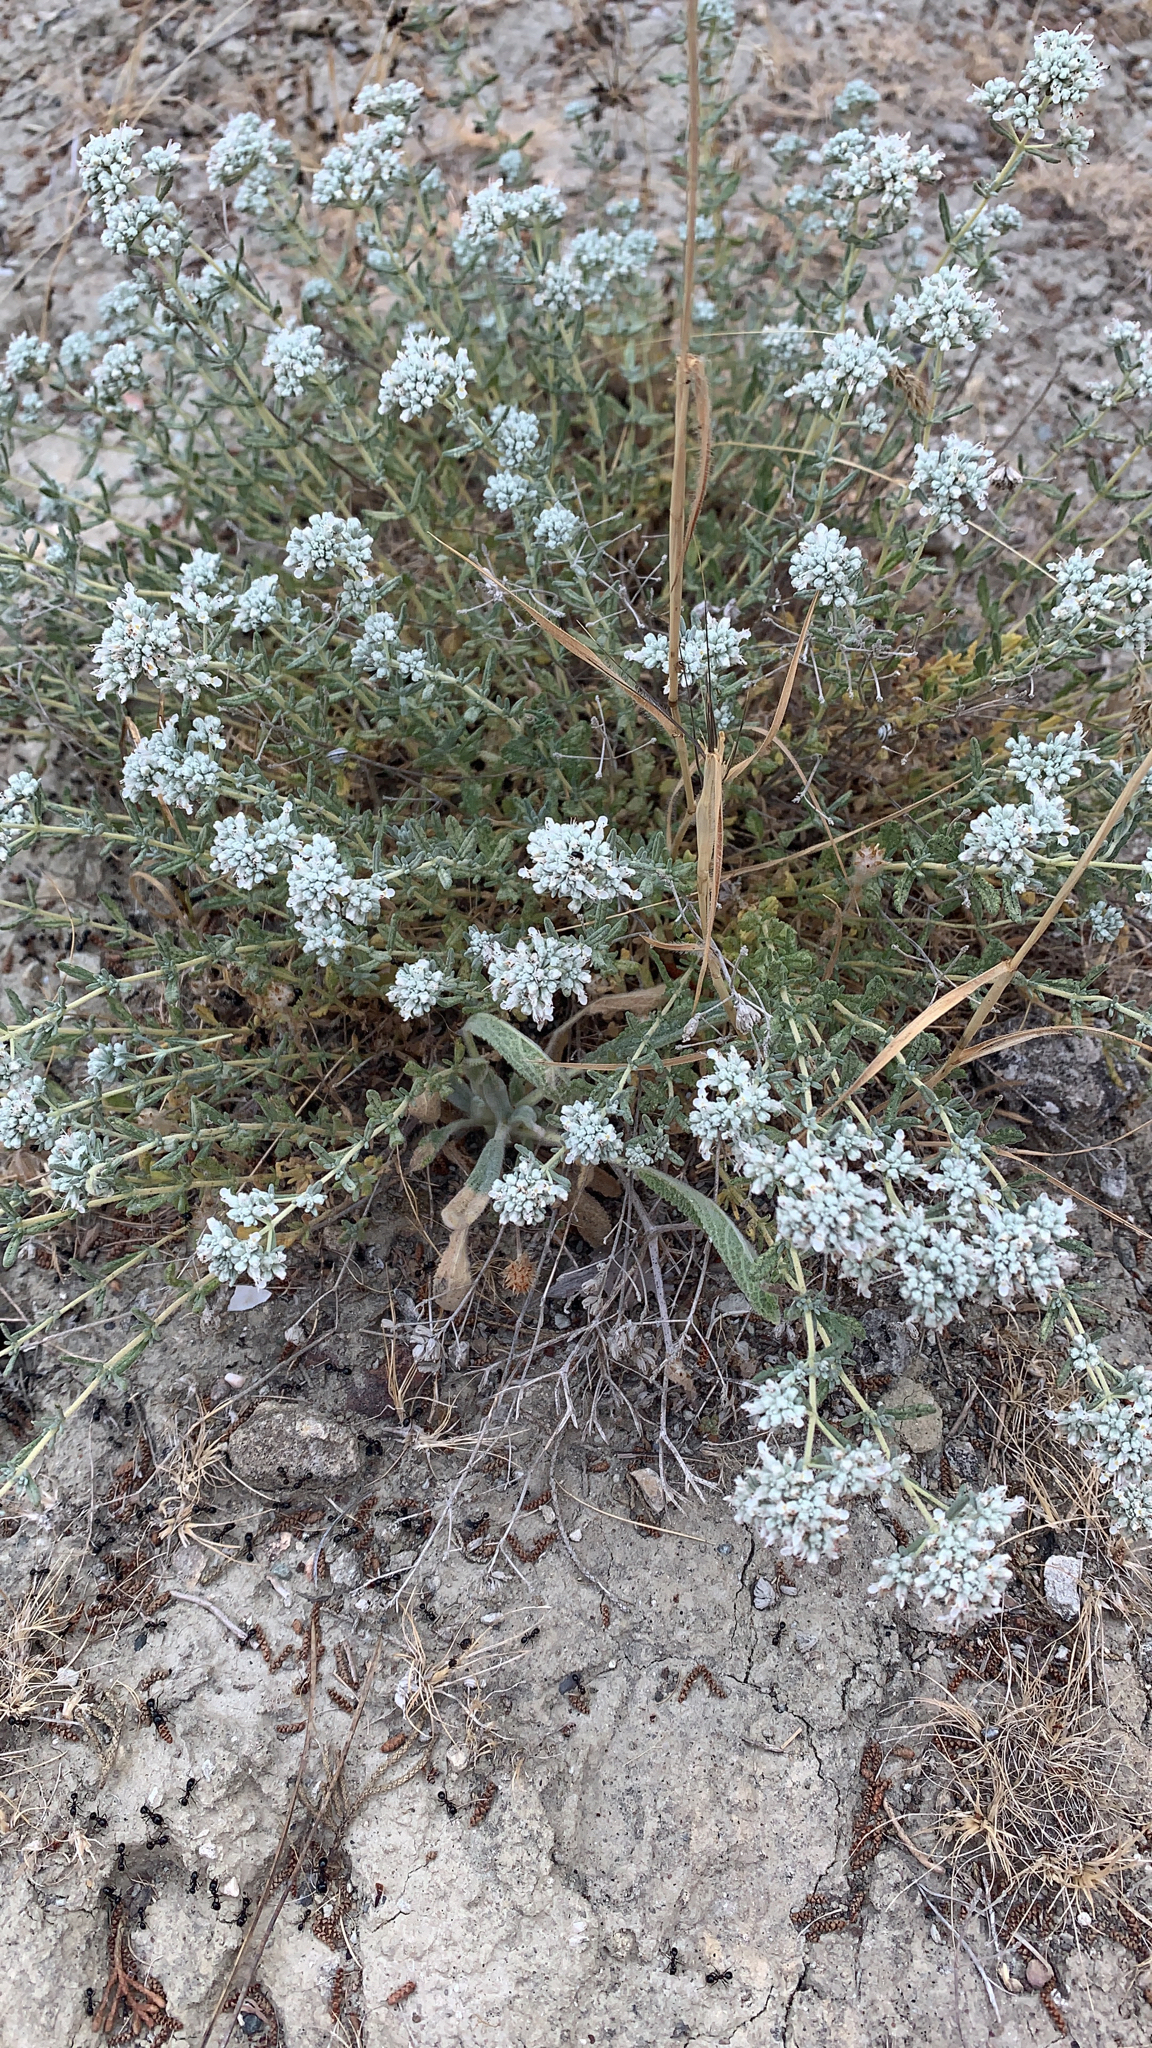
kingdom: Plantae
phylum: Tracheophyta
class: Magnoliopsida
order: Lamiales
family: Lamiaceae
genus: Teucrium
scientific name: Teucrium polium
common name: Poley
